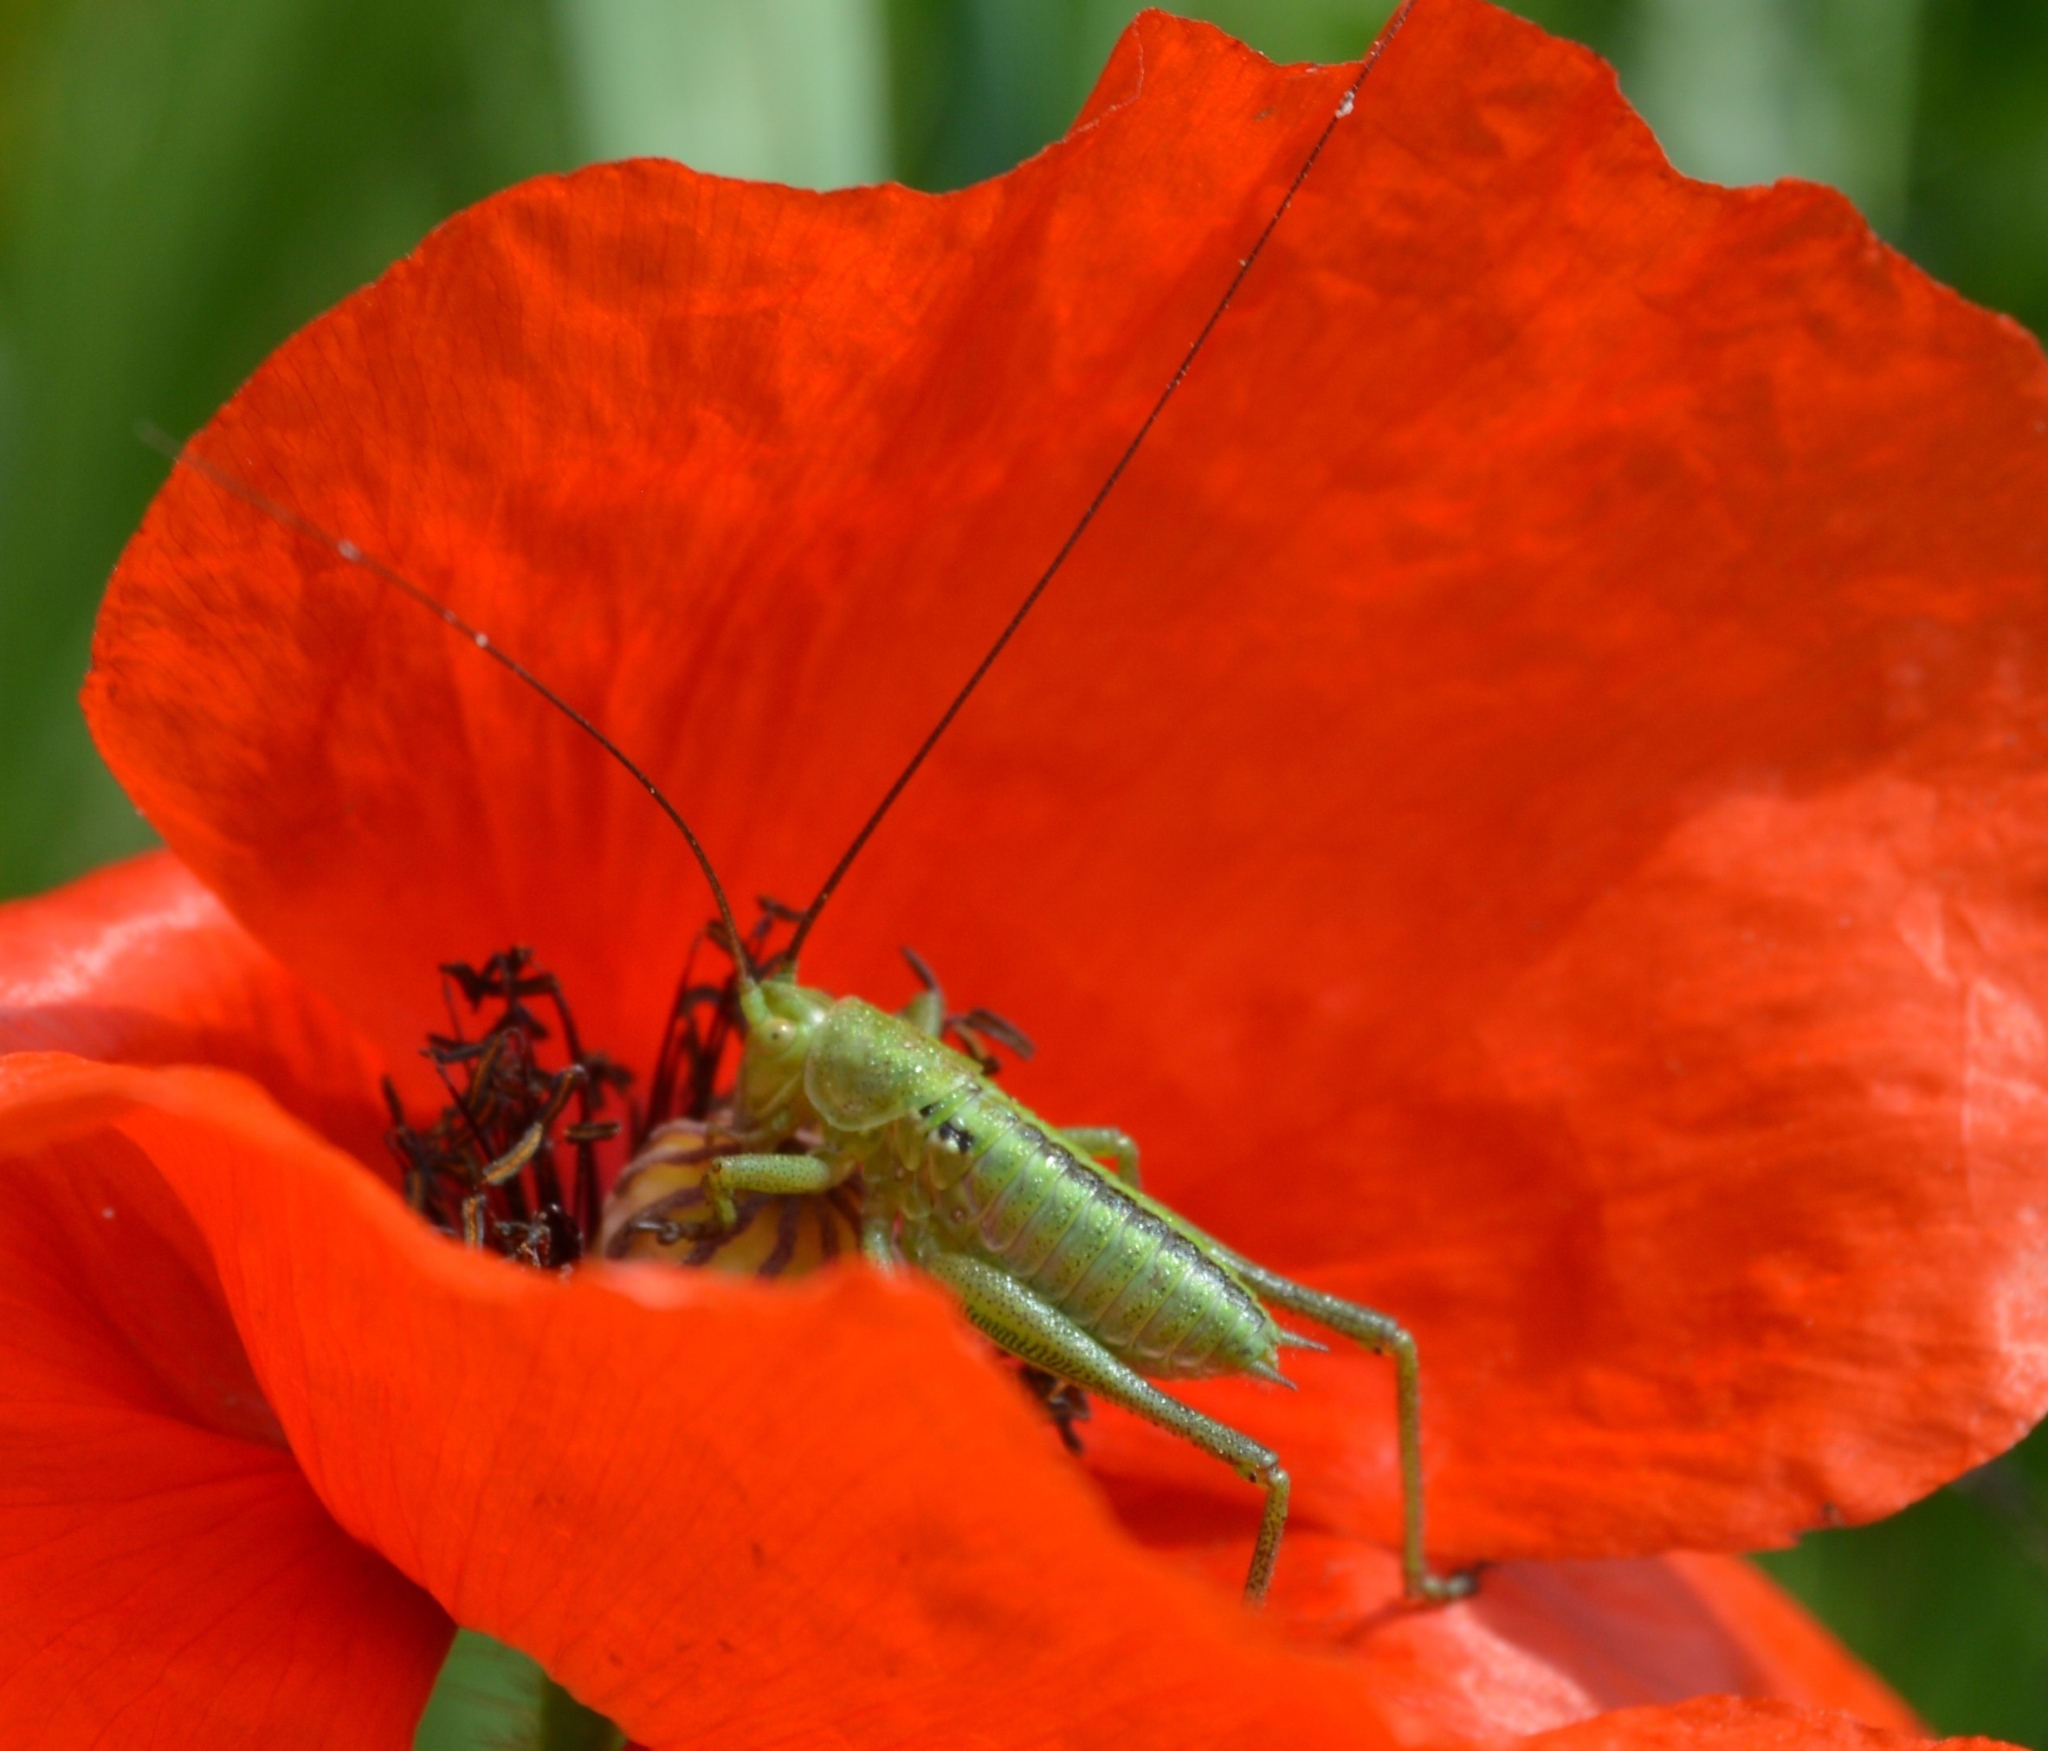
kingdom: Animalia
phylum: Arthropoda
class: Insecta
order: Orthoptera
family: Tettigoniidae
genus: Tettigonia
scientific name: Tettigonia viridissima
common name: Great green bush-cricket
